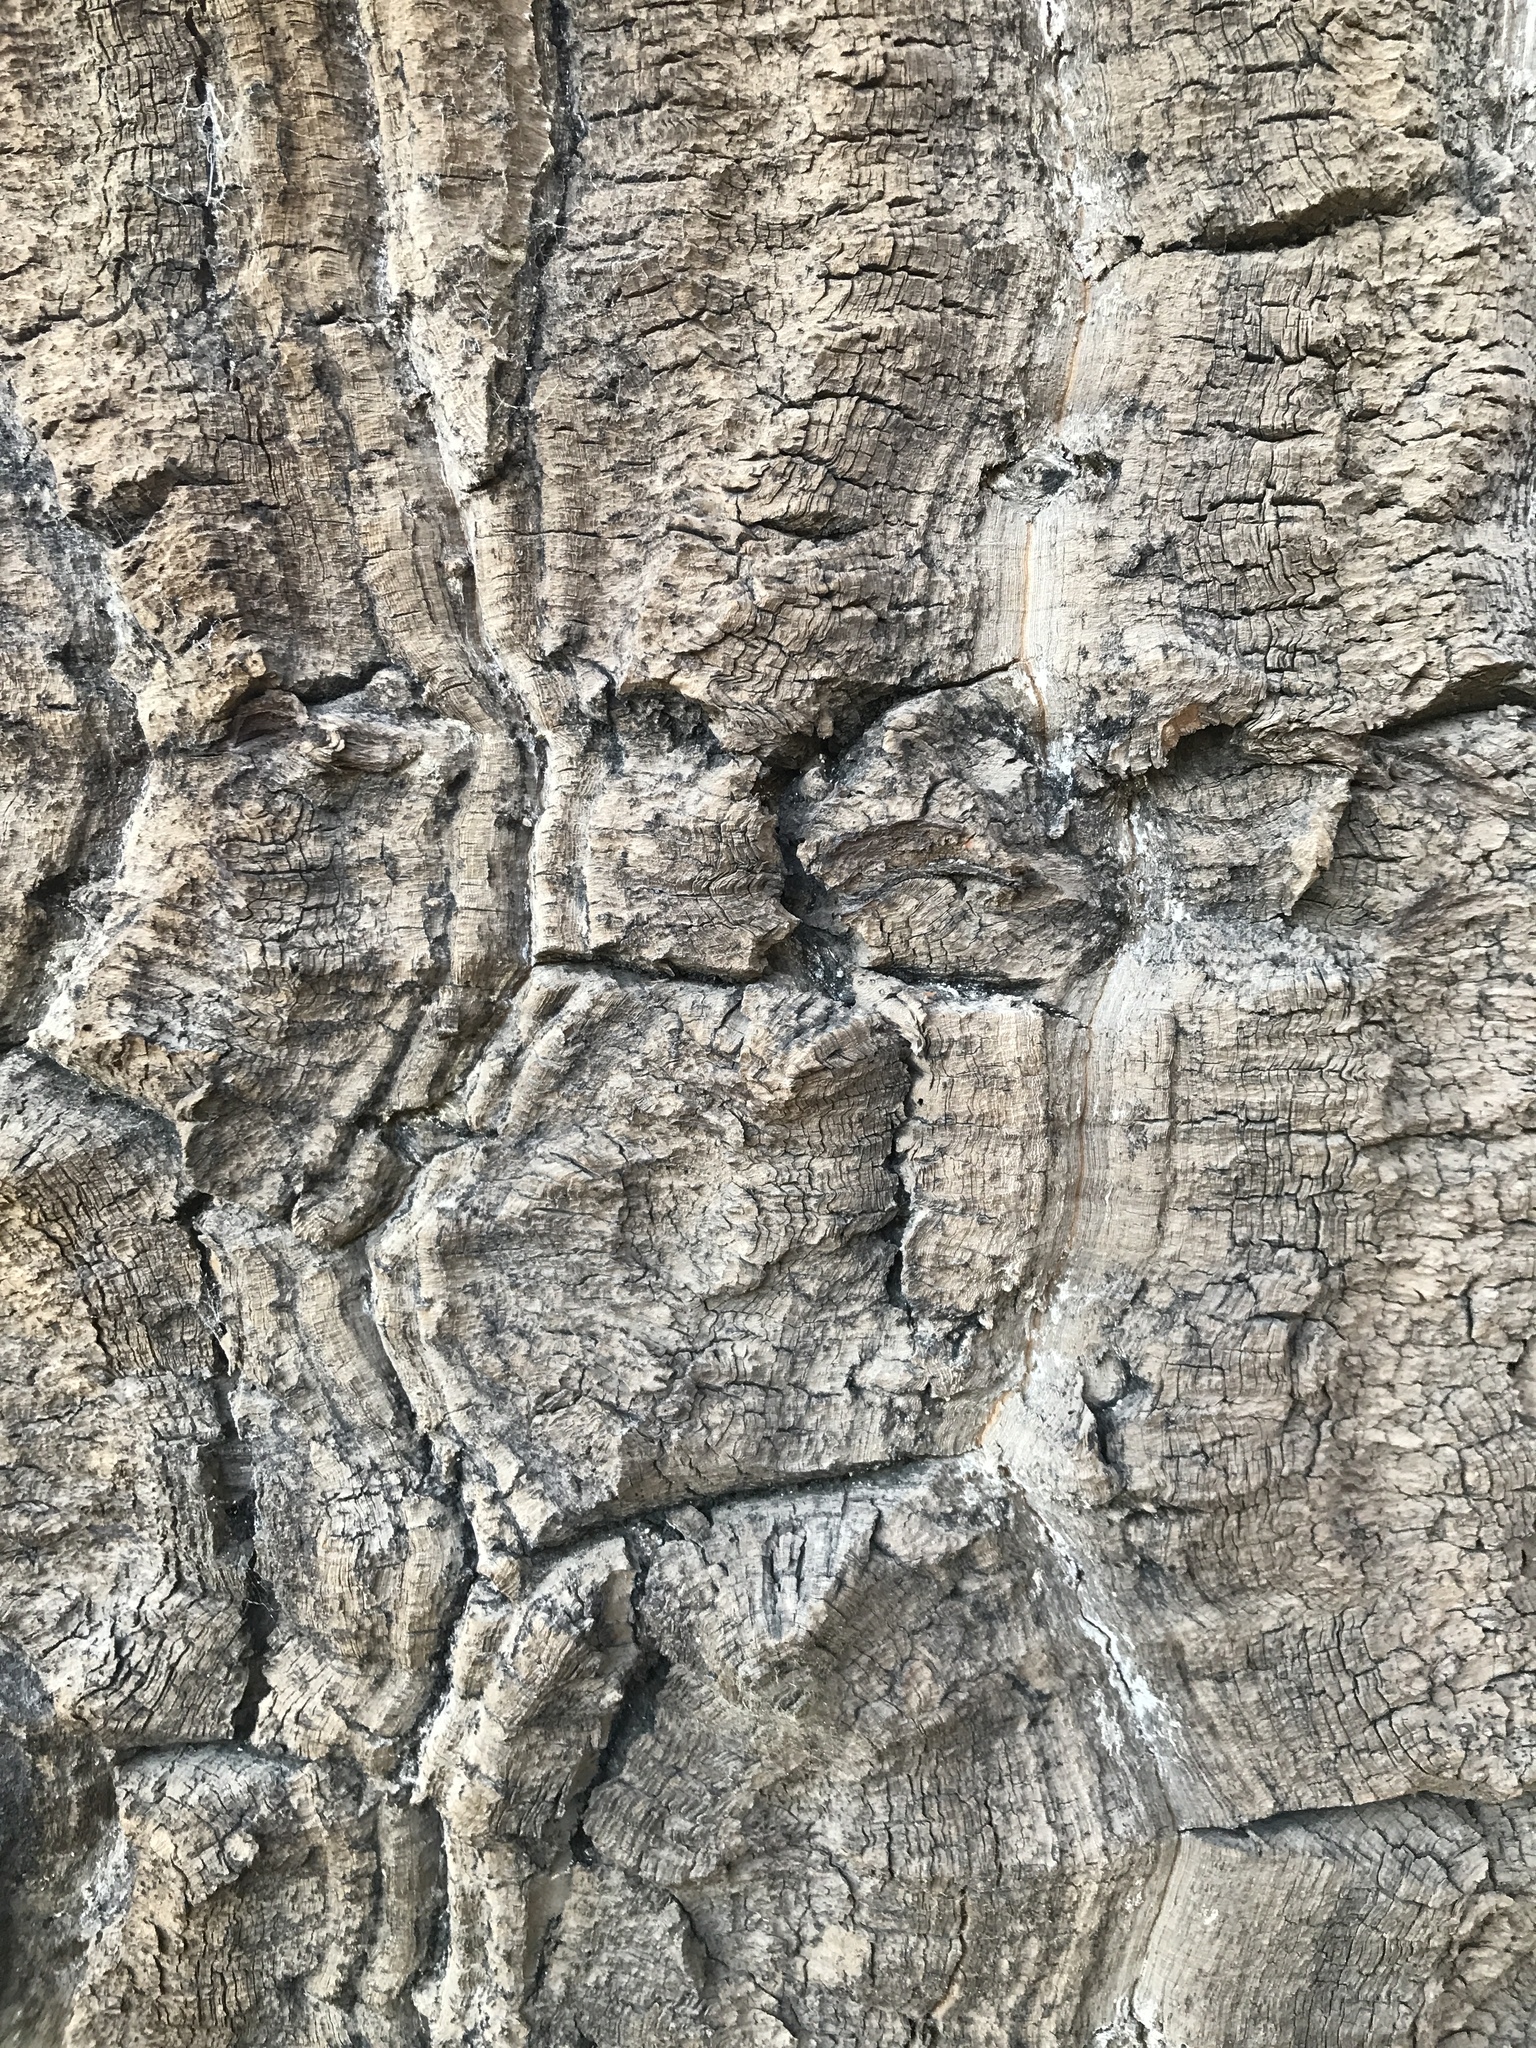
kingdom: Plantae
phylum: Tracheophyta
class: Pinopsida
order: Pinales
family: Araucariaceae
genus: Araucaria
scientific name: Araucaria araucana
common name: Monkey-puzzle
